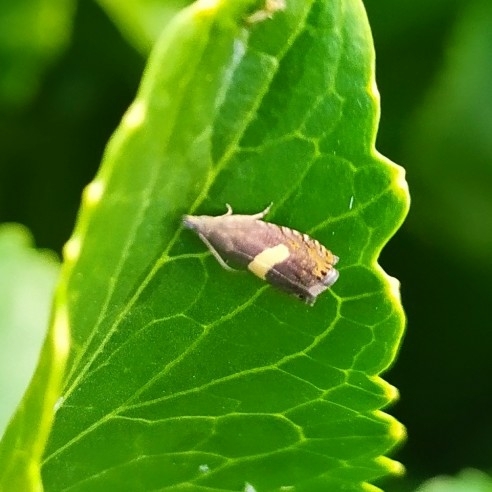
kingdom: Animalia
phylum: Arthropoda
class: Insecta
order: Lepidoptera
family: Tortricidae
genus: Dichrorampha
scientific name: Dichrorampha petiverella
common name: Common drill
